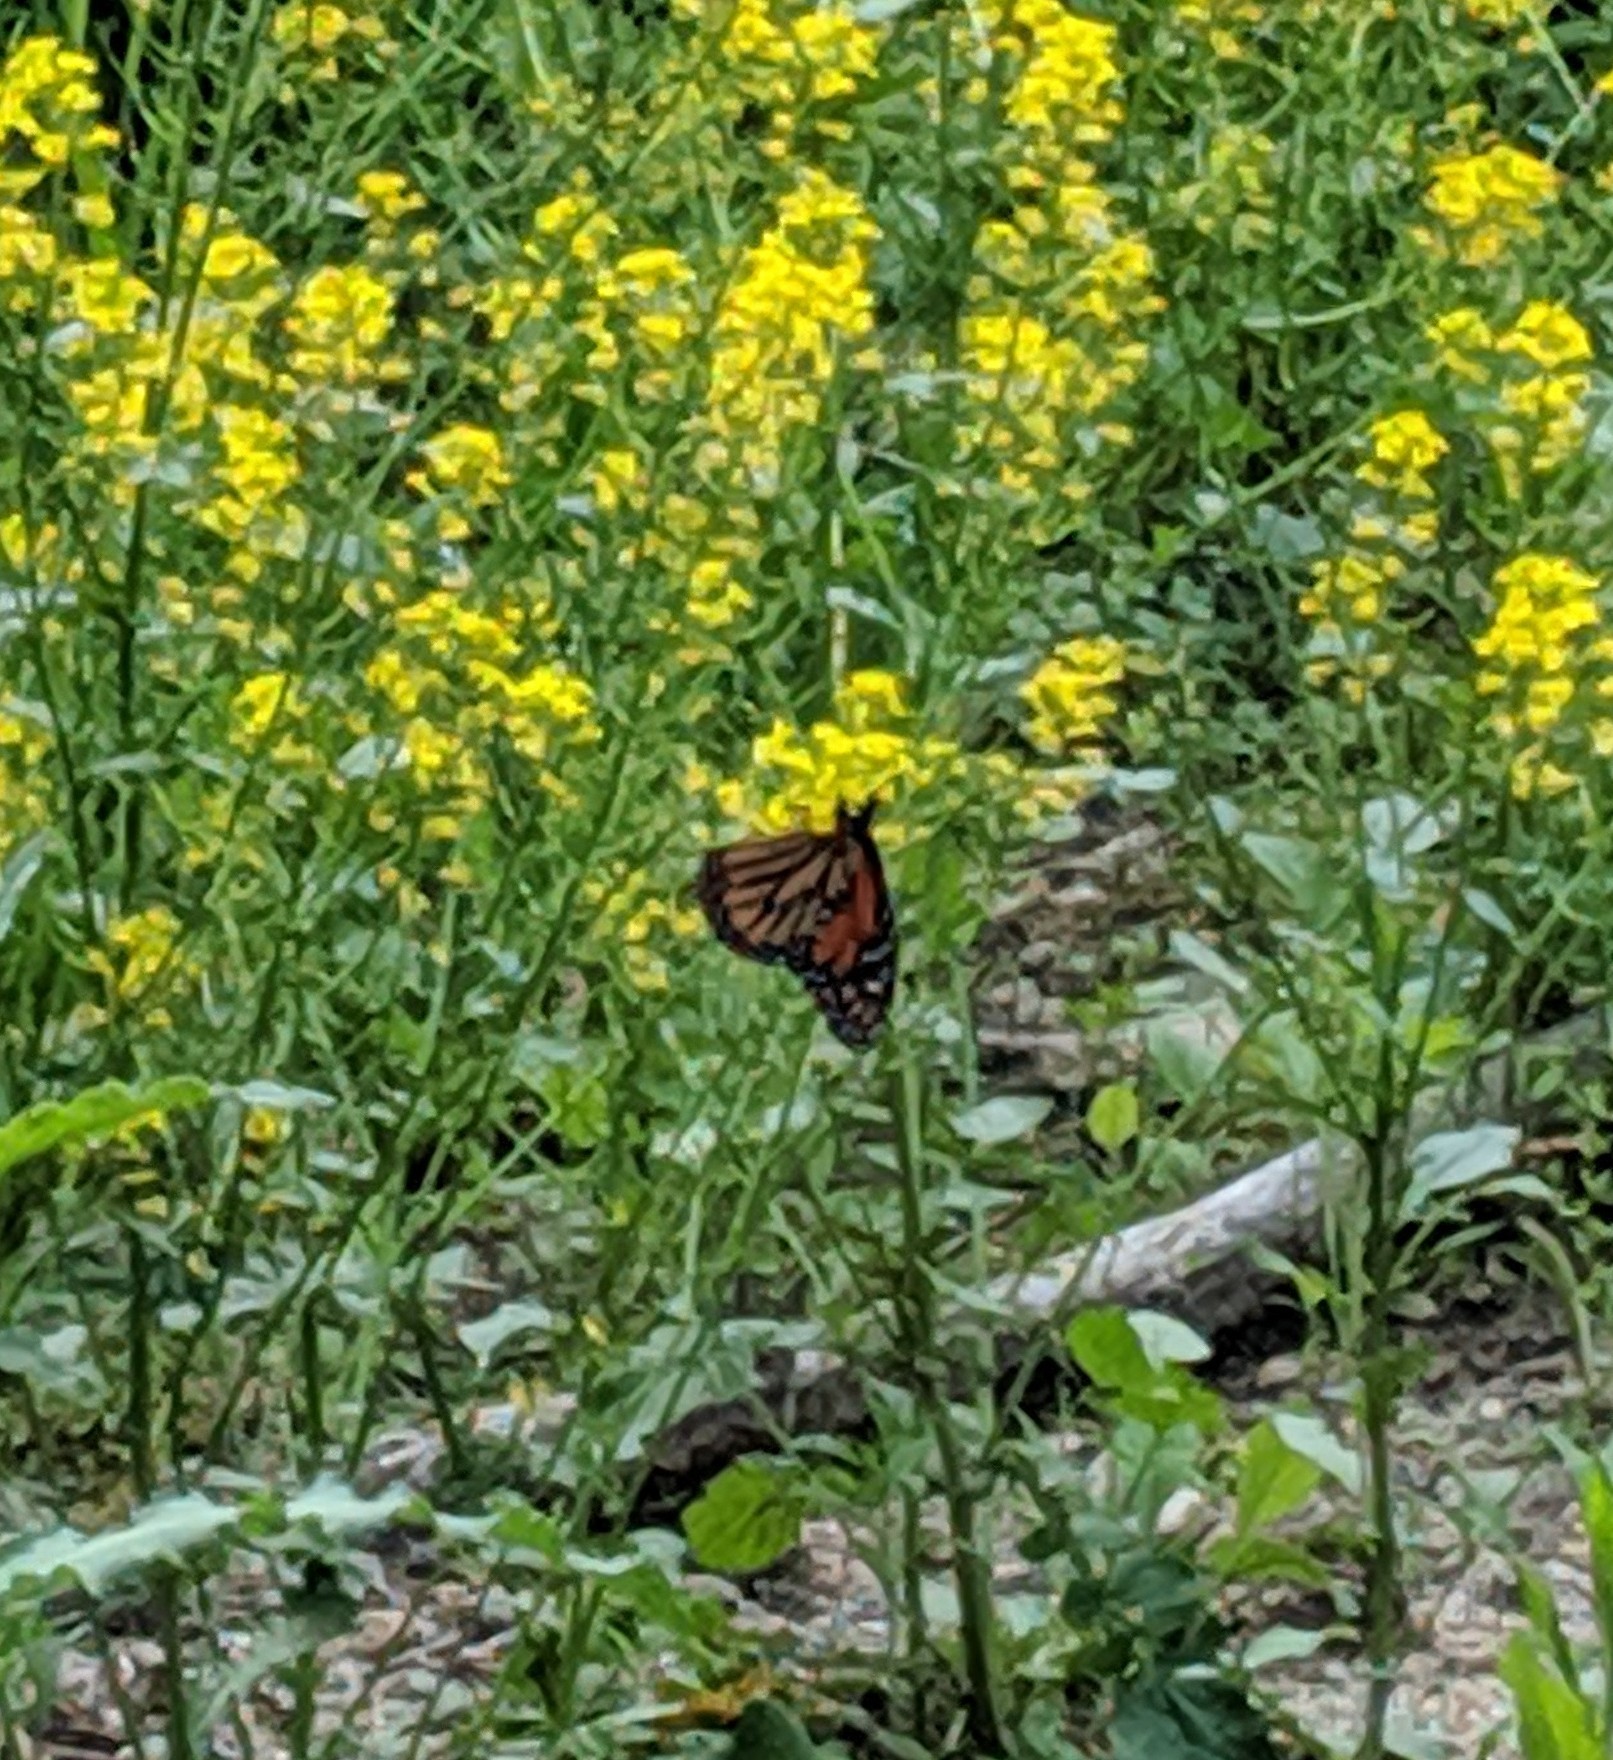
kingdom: Animalia
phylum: Arthropoda
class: Insecta
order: Lepidoptera
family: Nymphalidae
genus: Danaus
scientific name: Danaus plexippus
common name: Monarch
